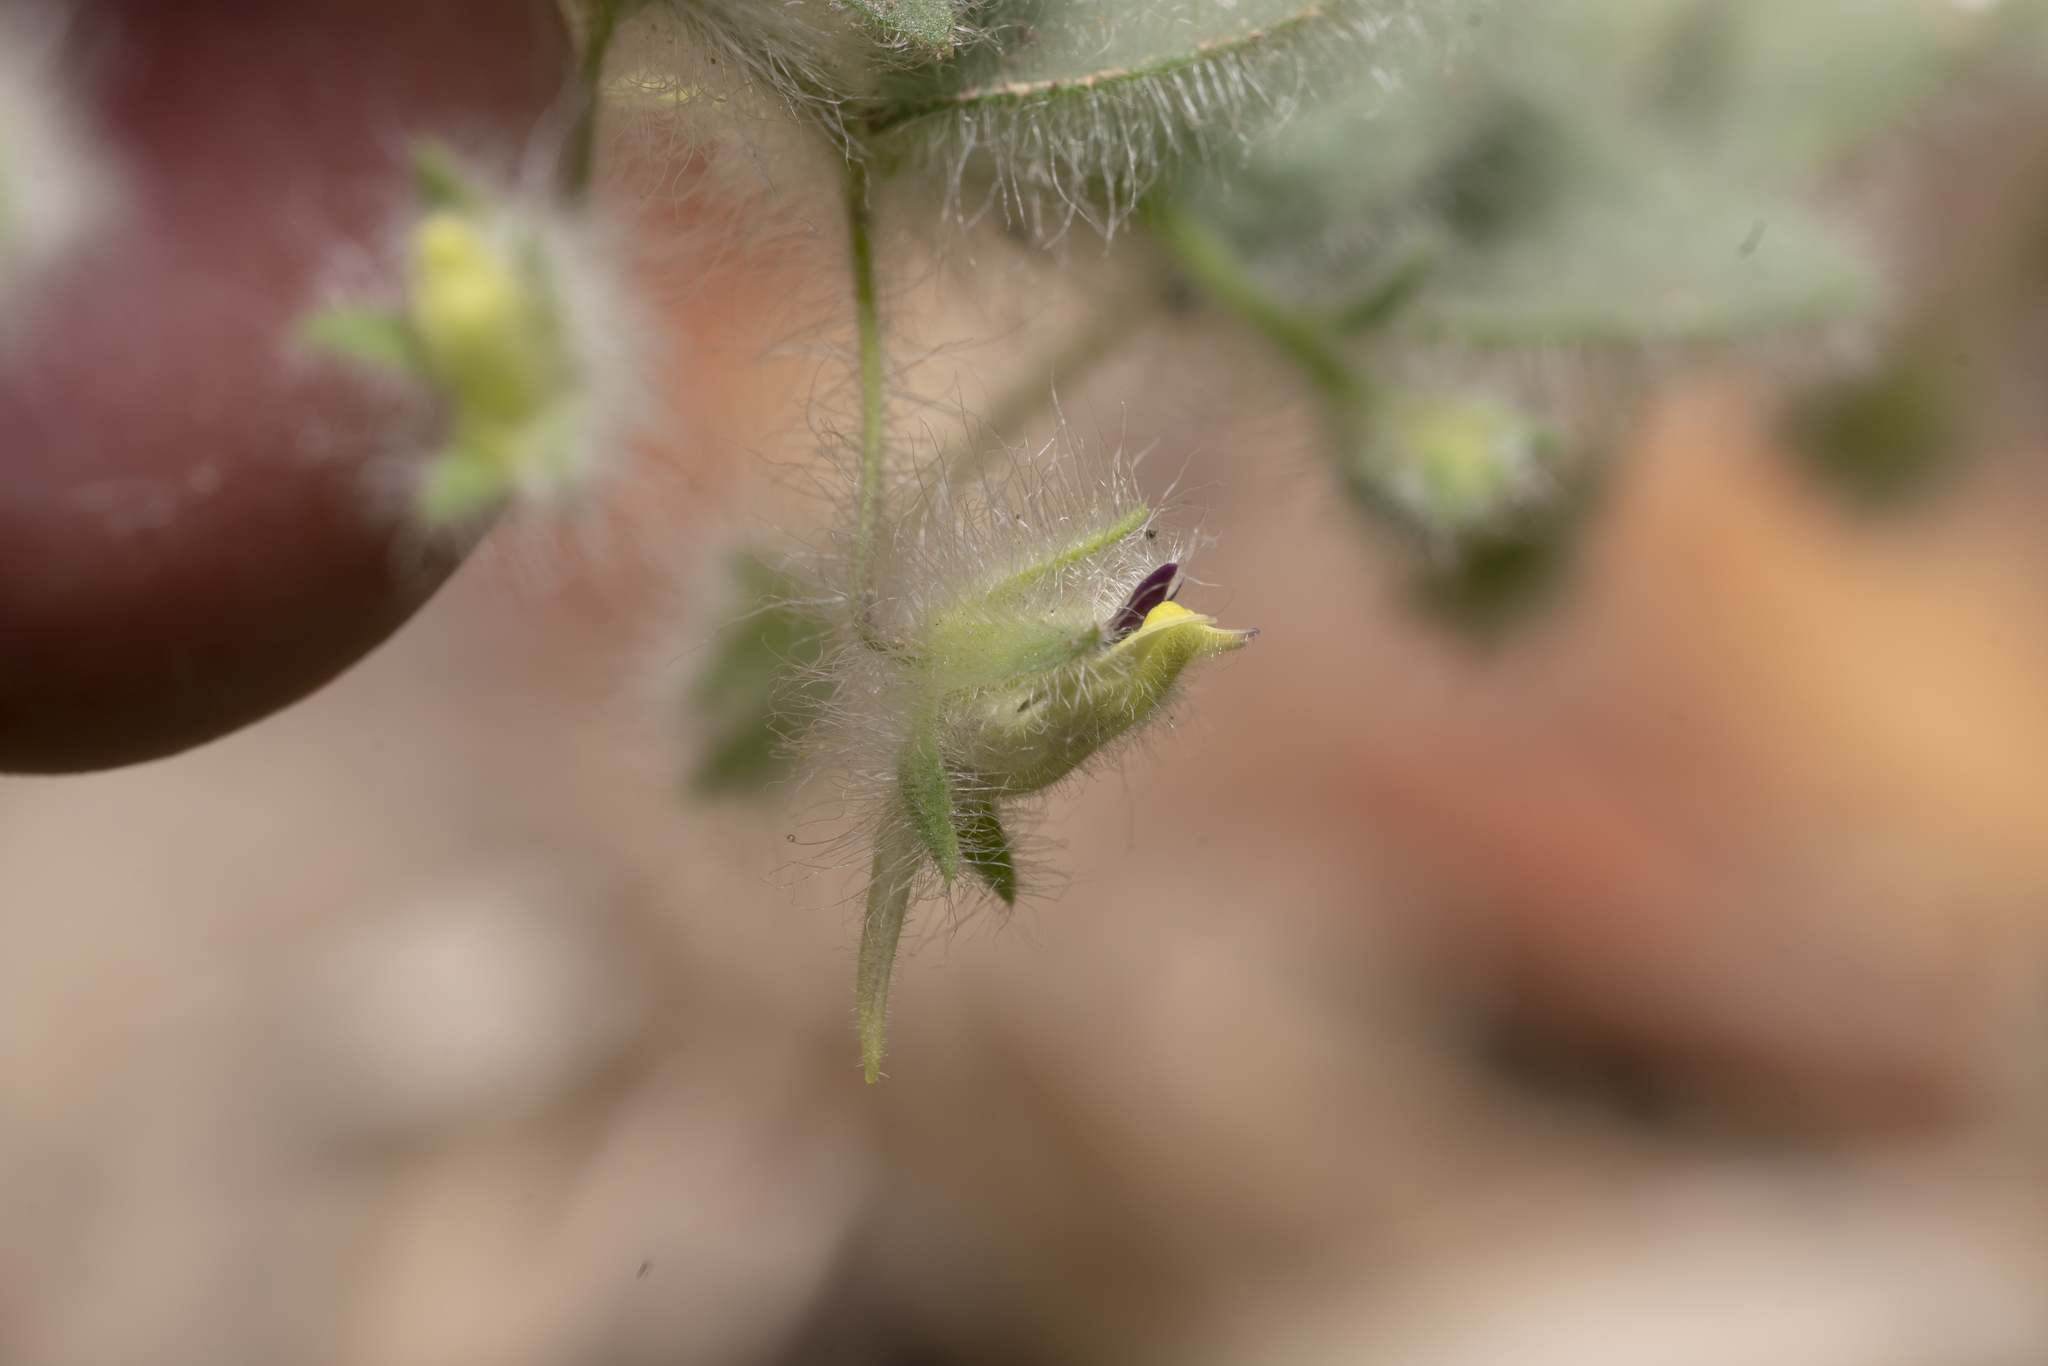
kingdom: Plantae
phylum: Tracheophyta
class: Magnoliopsida
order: Lamiales
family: Plantaginaceae
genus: Kickxia
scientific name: Kickxia elatine
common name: Sharp-leaved fluellen
